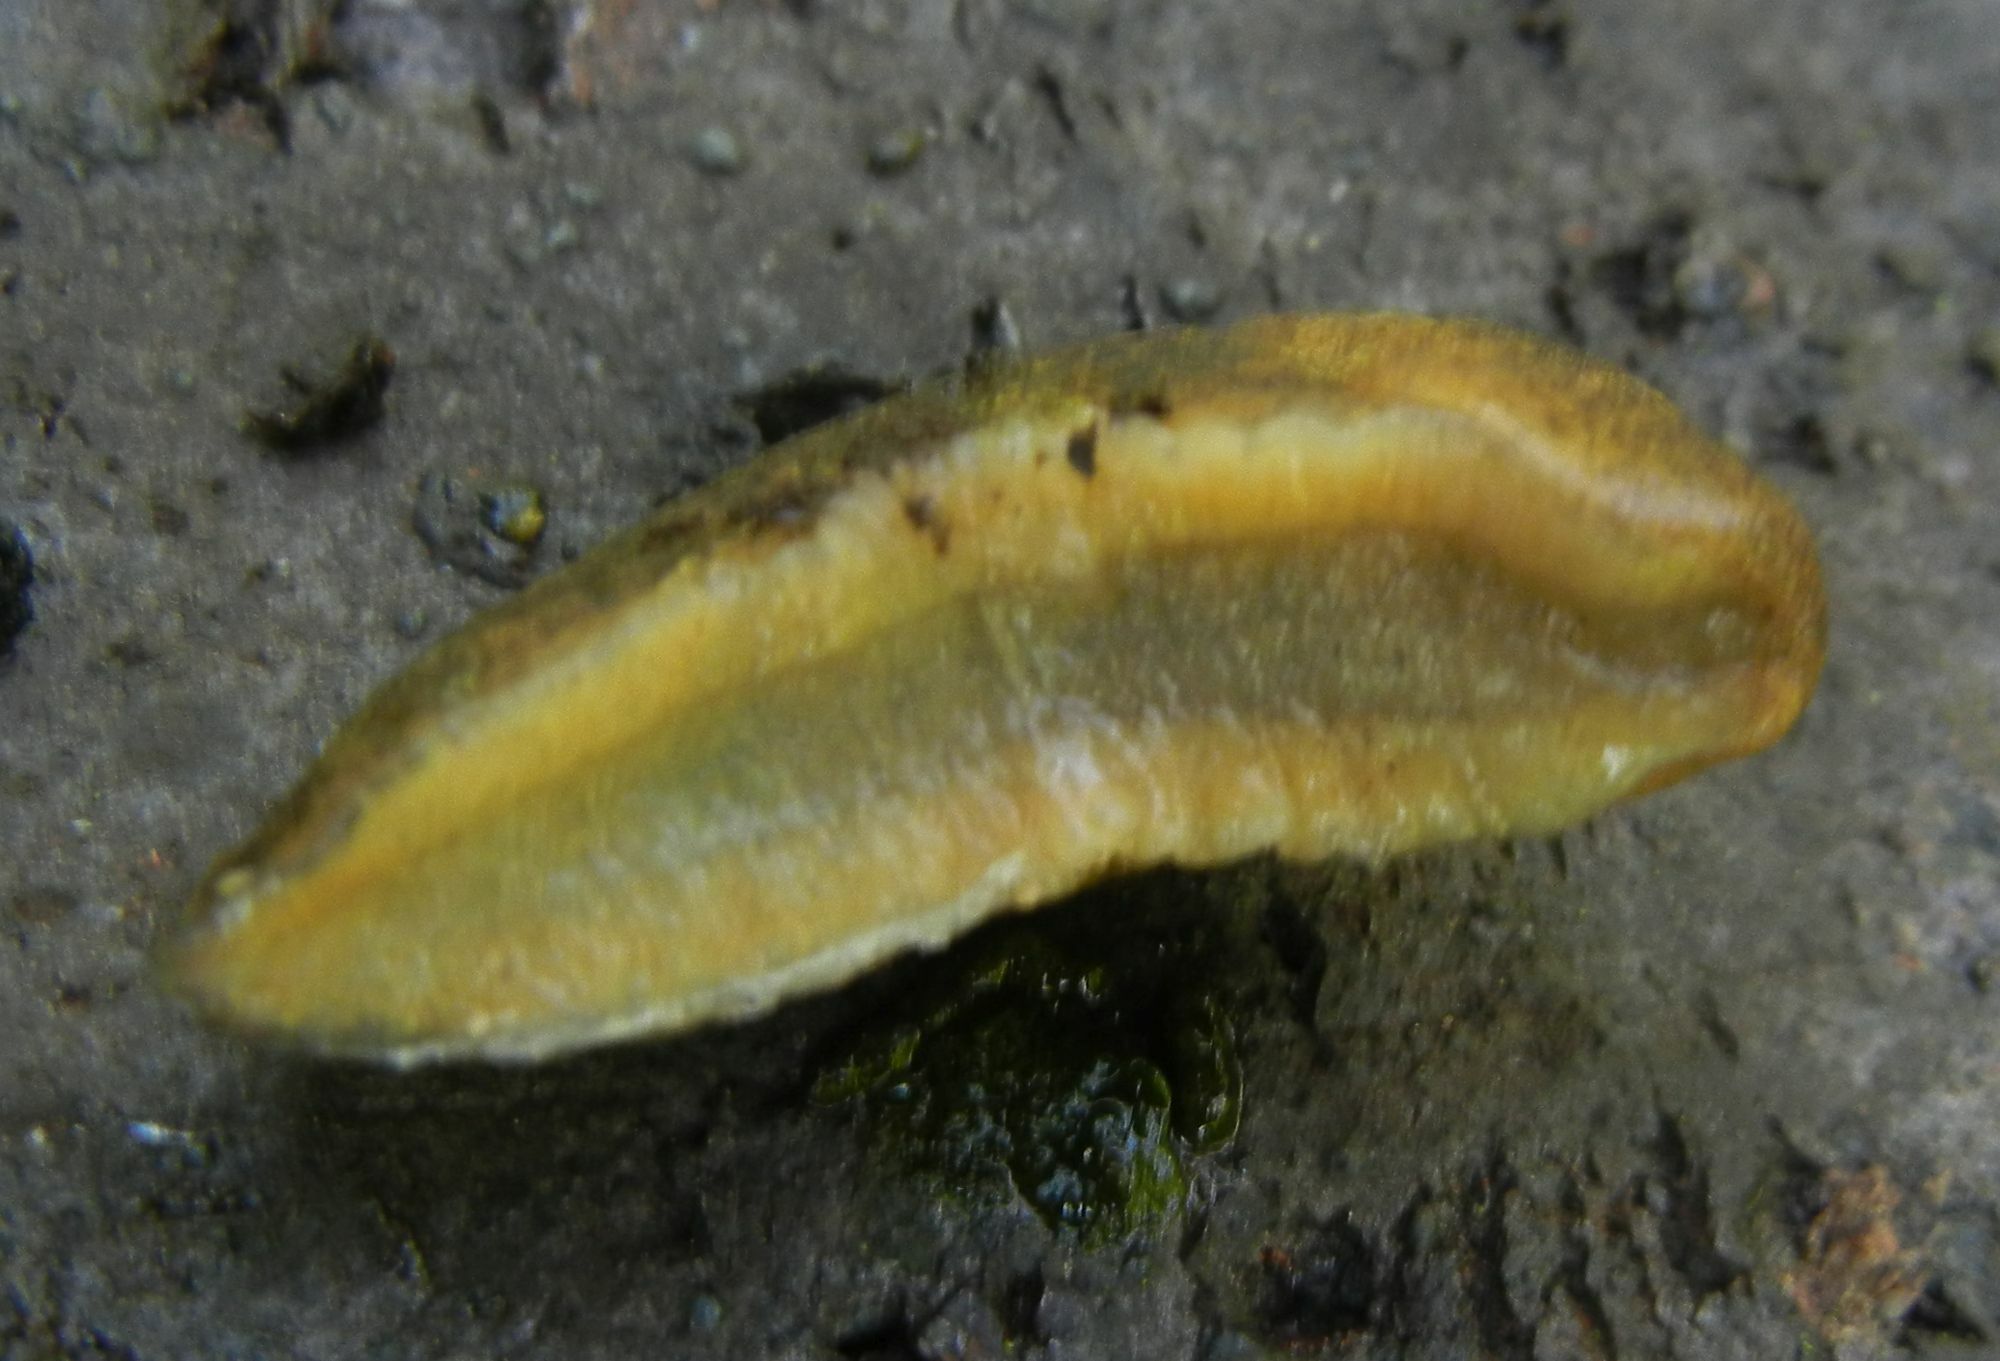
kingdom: Animalia
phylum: Mollusca
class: Gastropoda
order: Stylommatophora
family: Milacidae
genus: Tandonia
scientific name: Tandonia budapestensis
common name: Budapest slug
